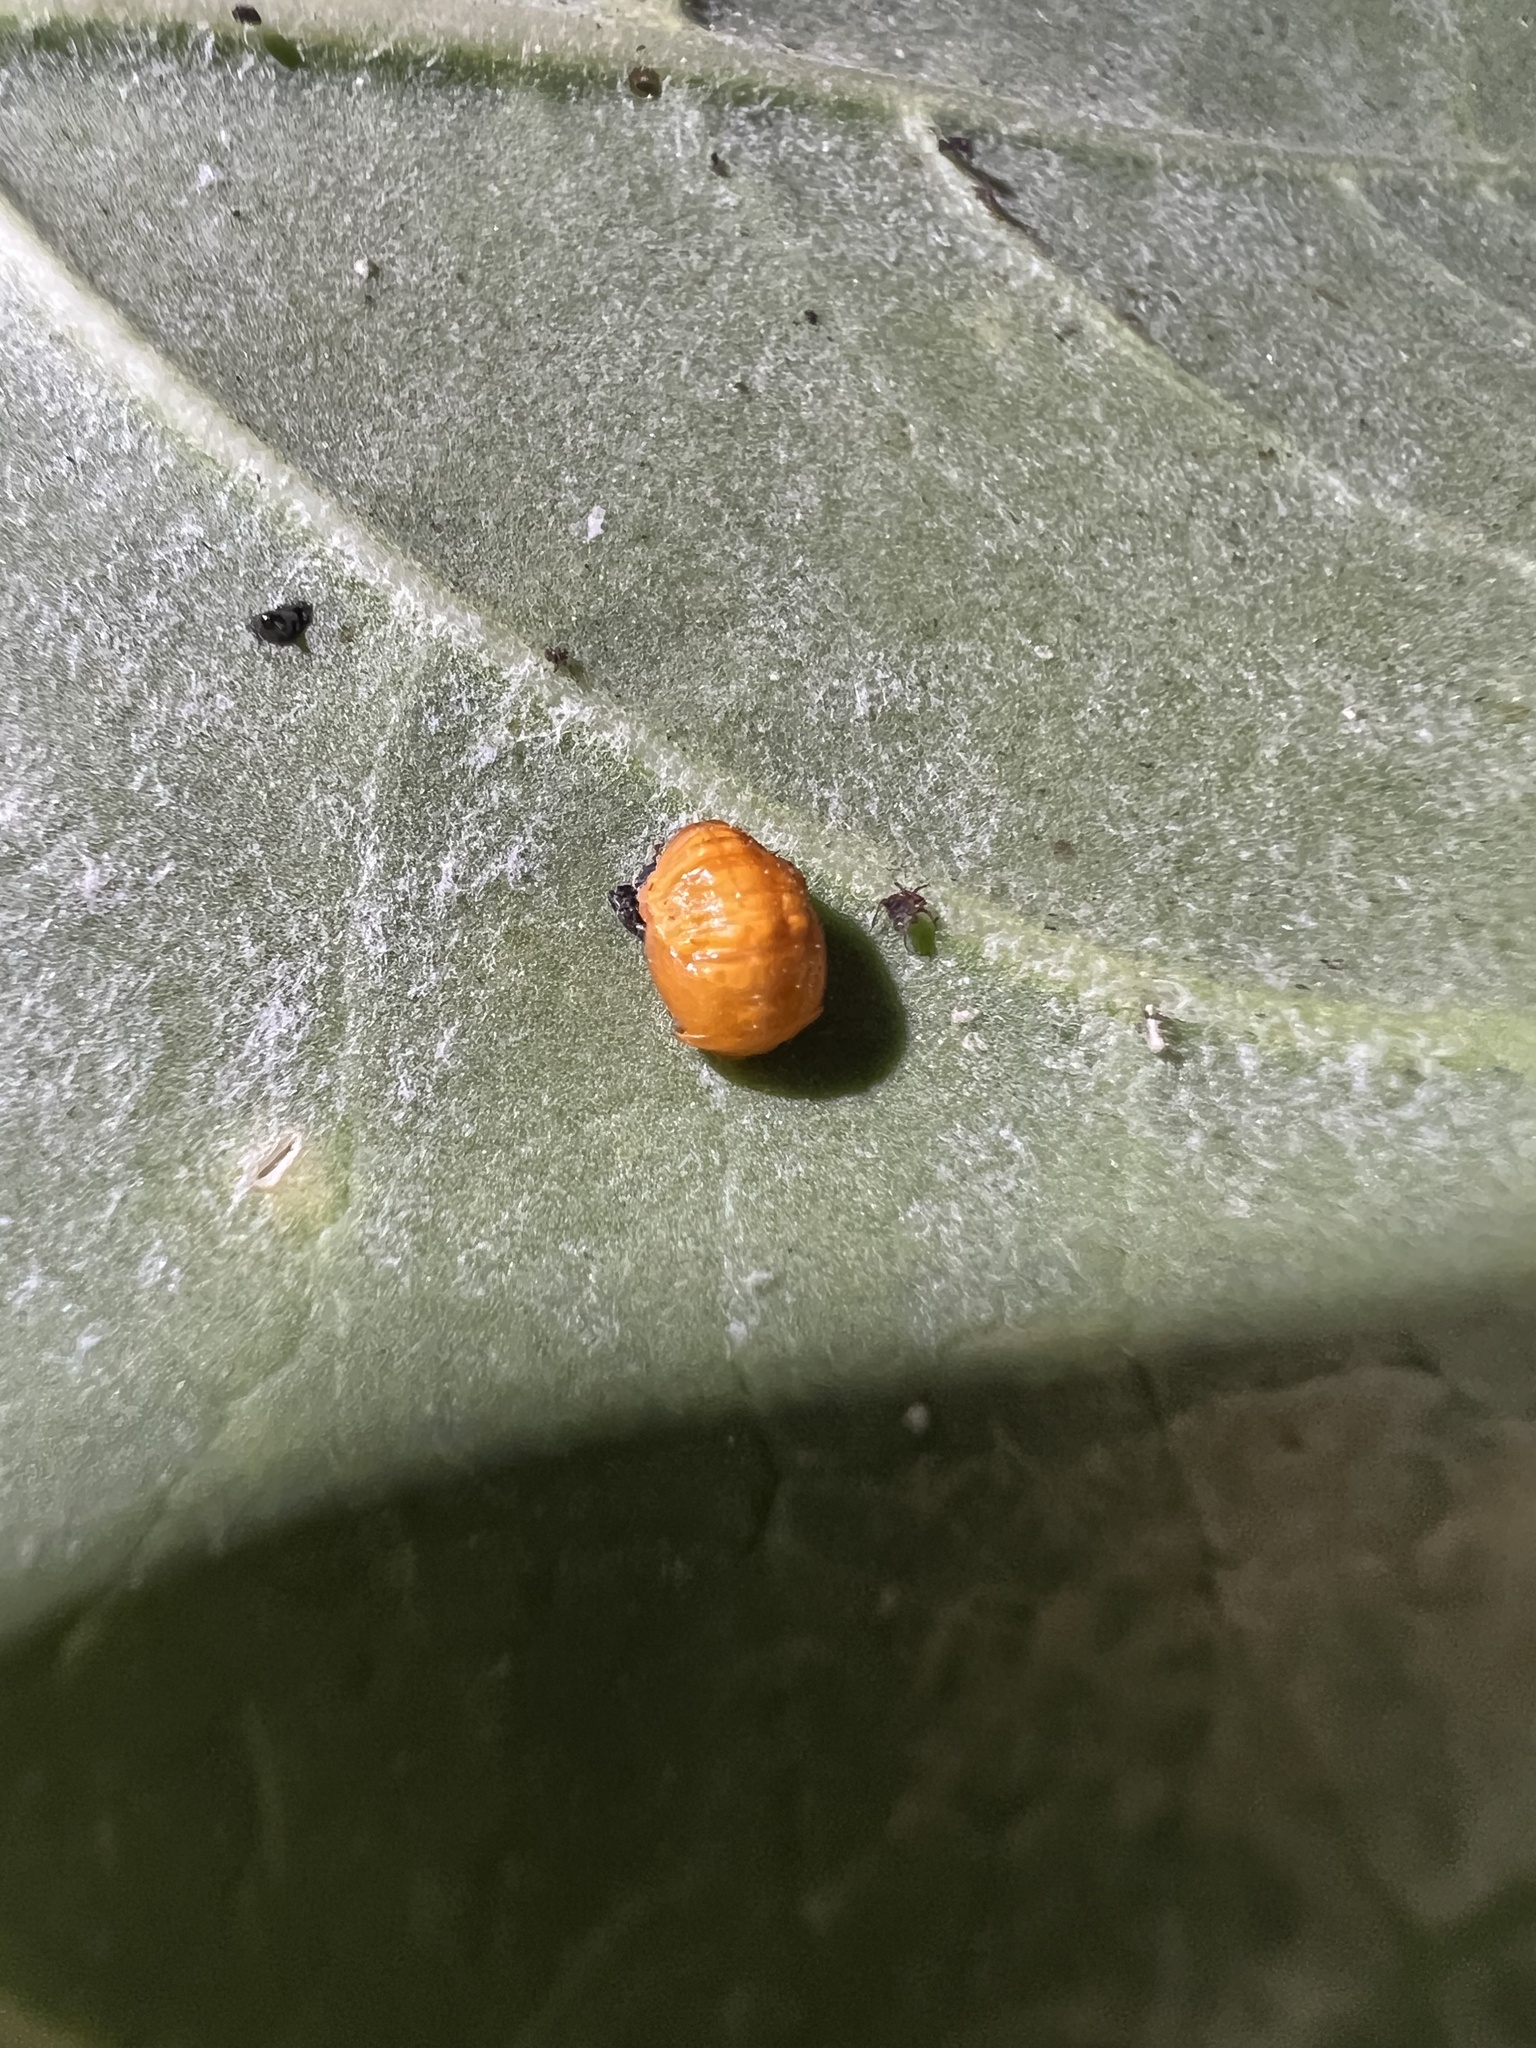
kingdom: Animalia
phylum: Arthropoda
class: Insecta
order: Coleoptera
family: Coccinellidae
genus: Cycloneda
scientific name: Cycloneda sanguinea
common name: Ladybird beetle
